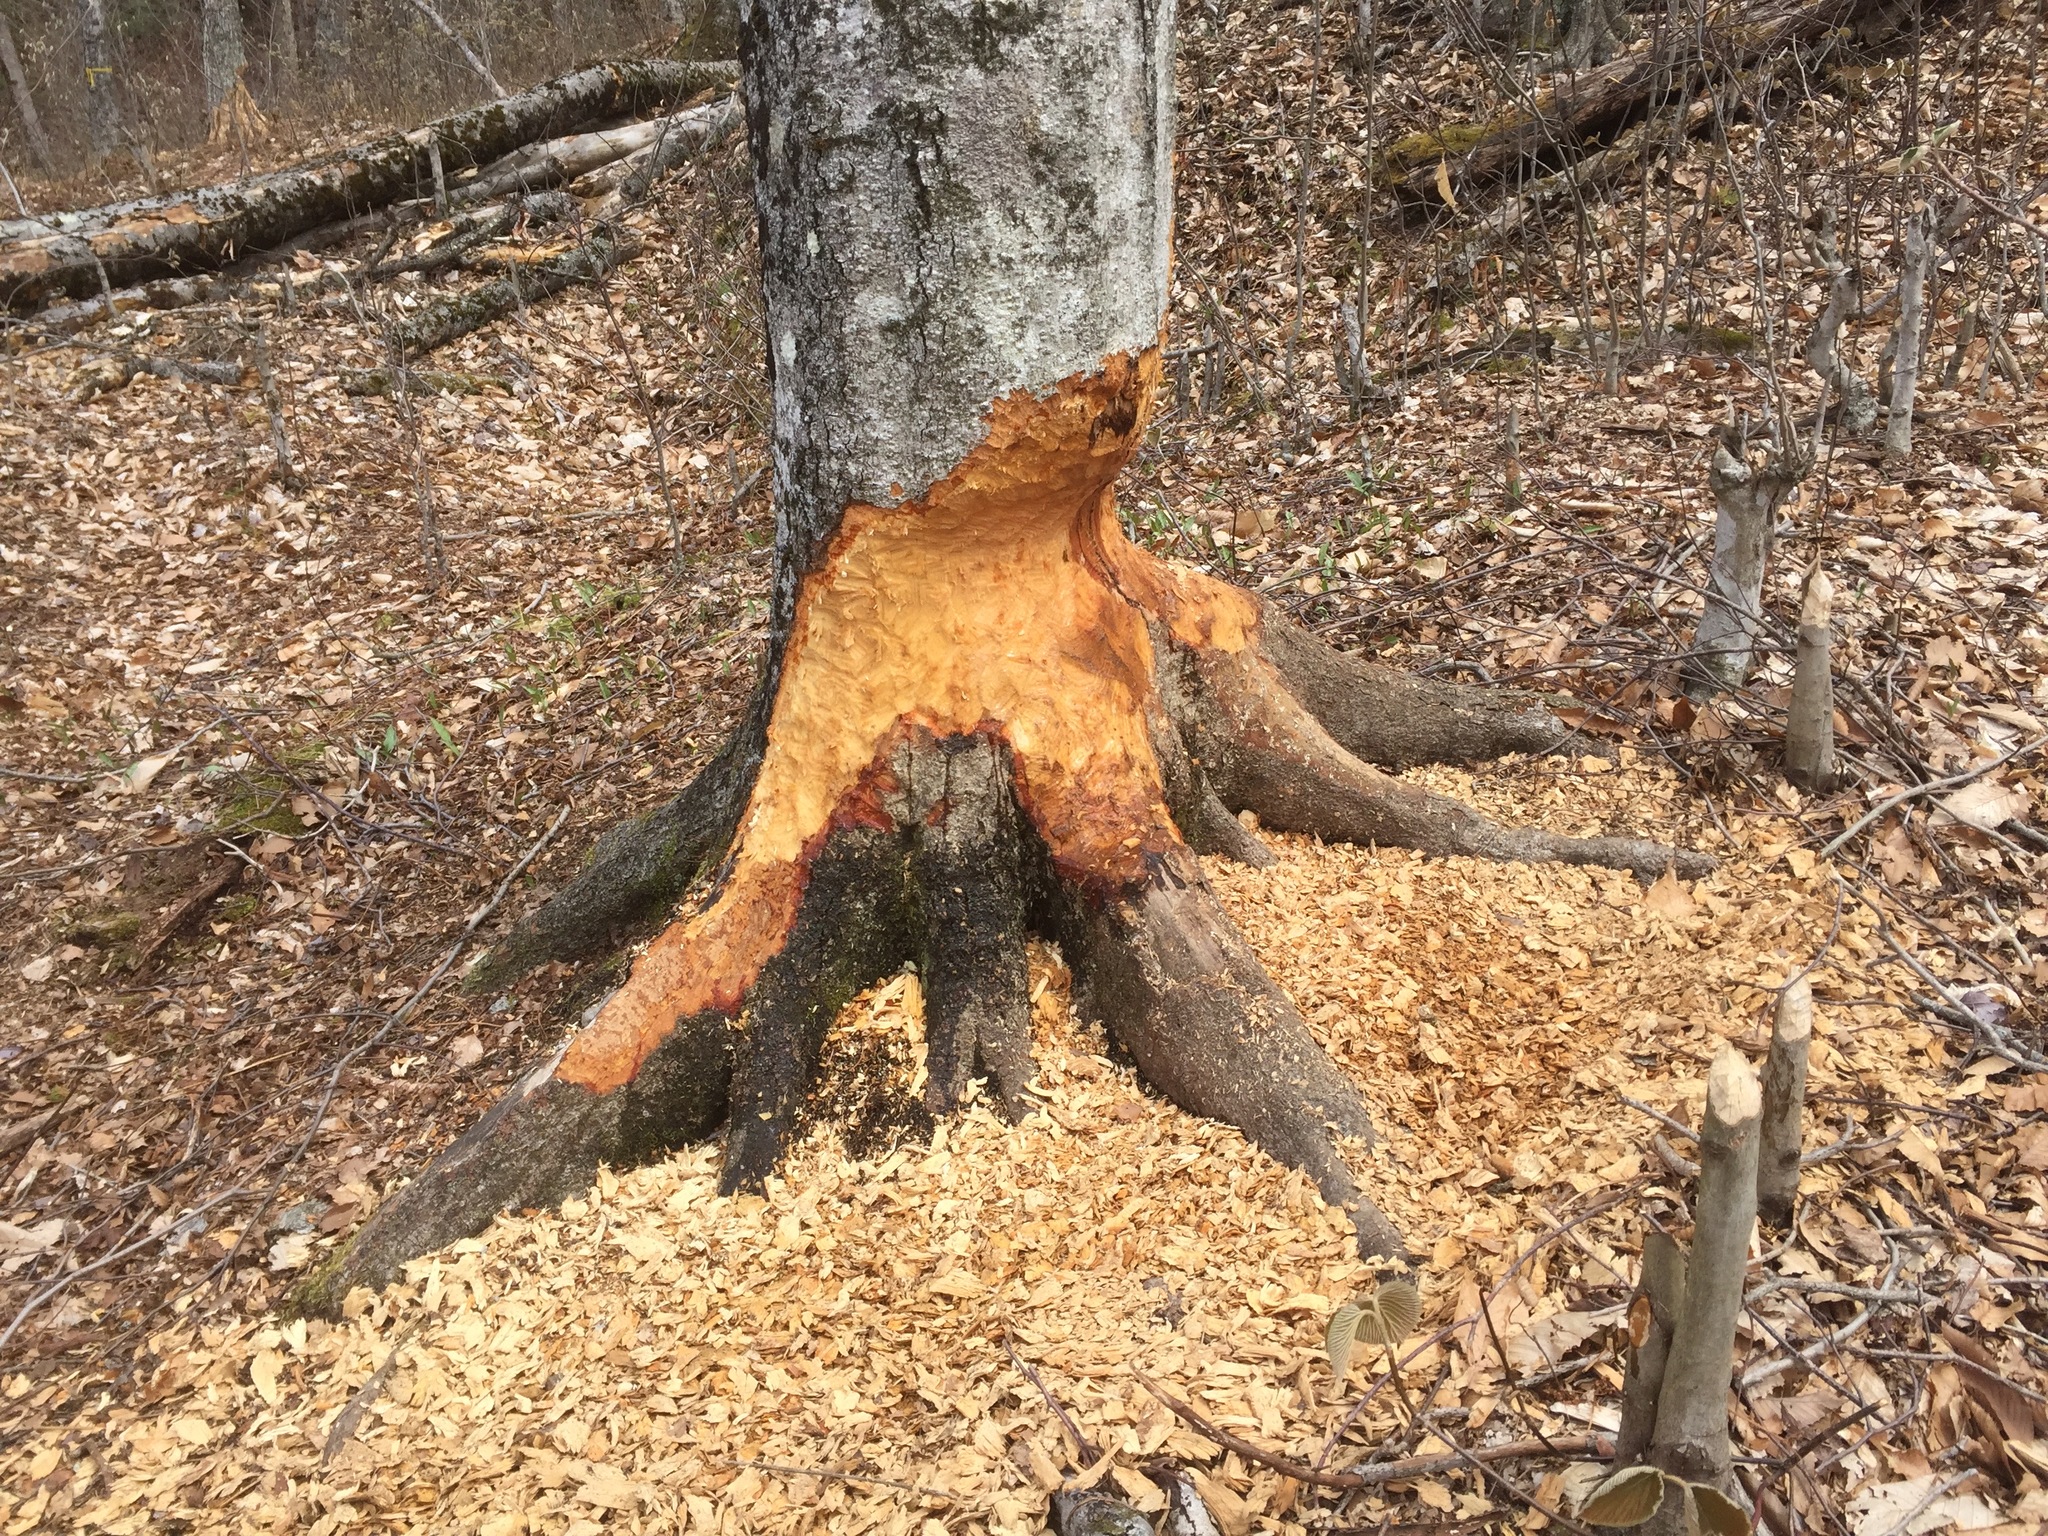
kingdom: Animalia
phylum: Chordata
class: Mammalia
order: Rodentia
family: Castoridae
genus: Castor
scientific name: Castor canadensis
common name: American beaver
